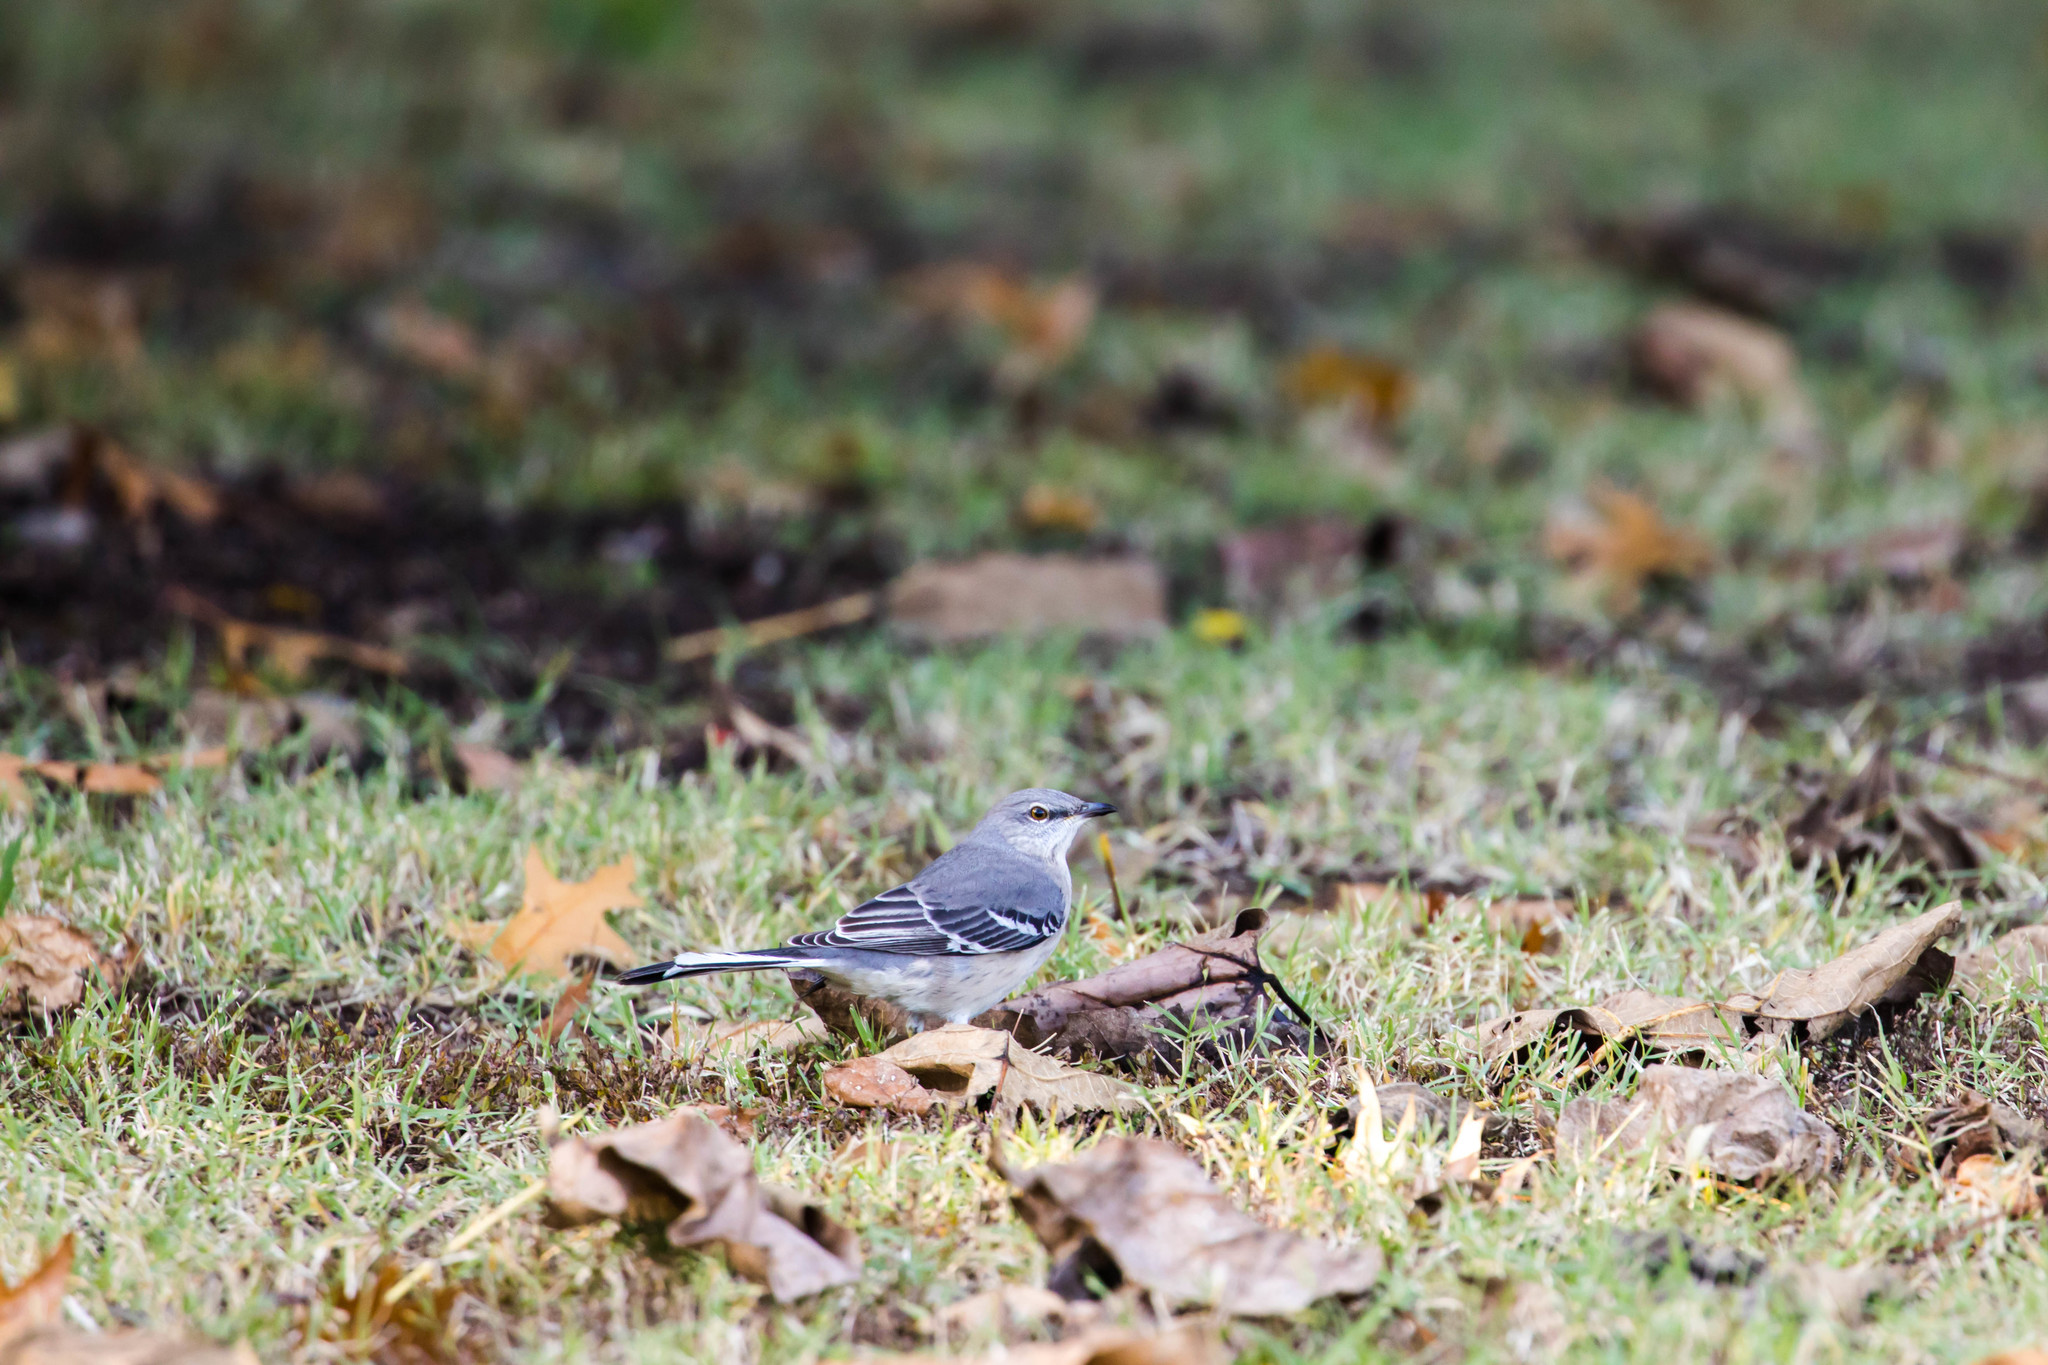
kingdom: Animalia
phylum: Chordata
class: Aves
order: Passeriformes
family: Mimidae
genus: Mimus
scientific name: Mimus polyglottos
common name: Northern mockingbird
